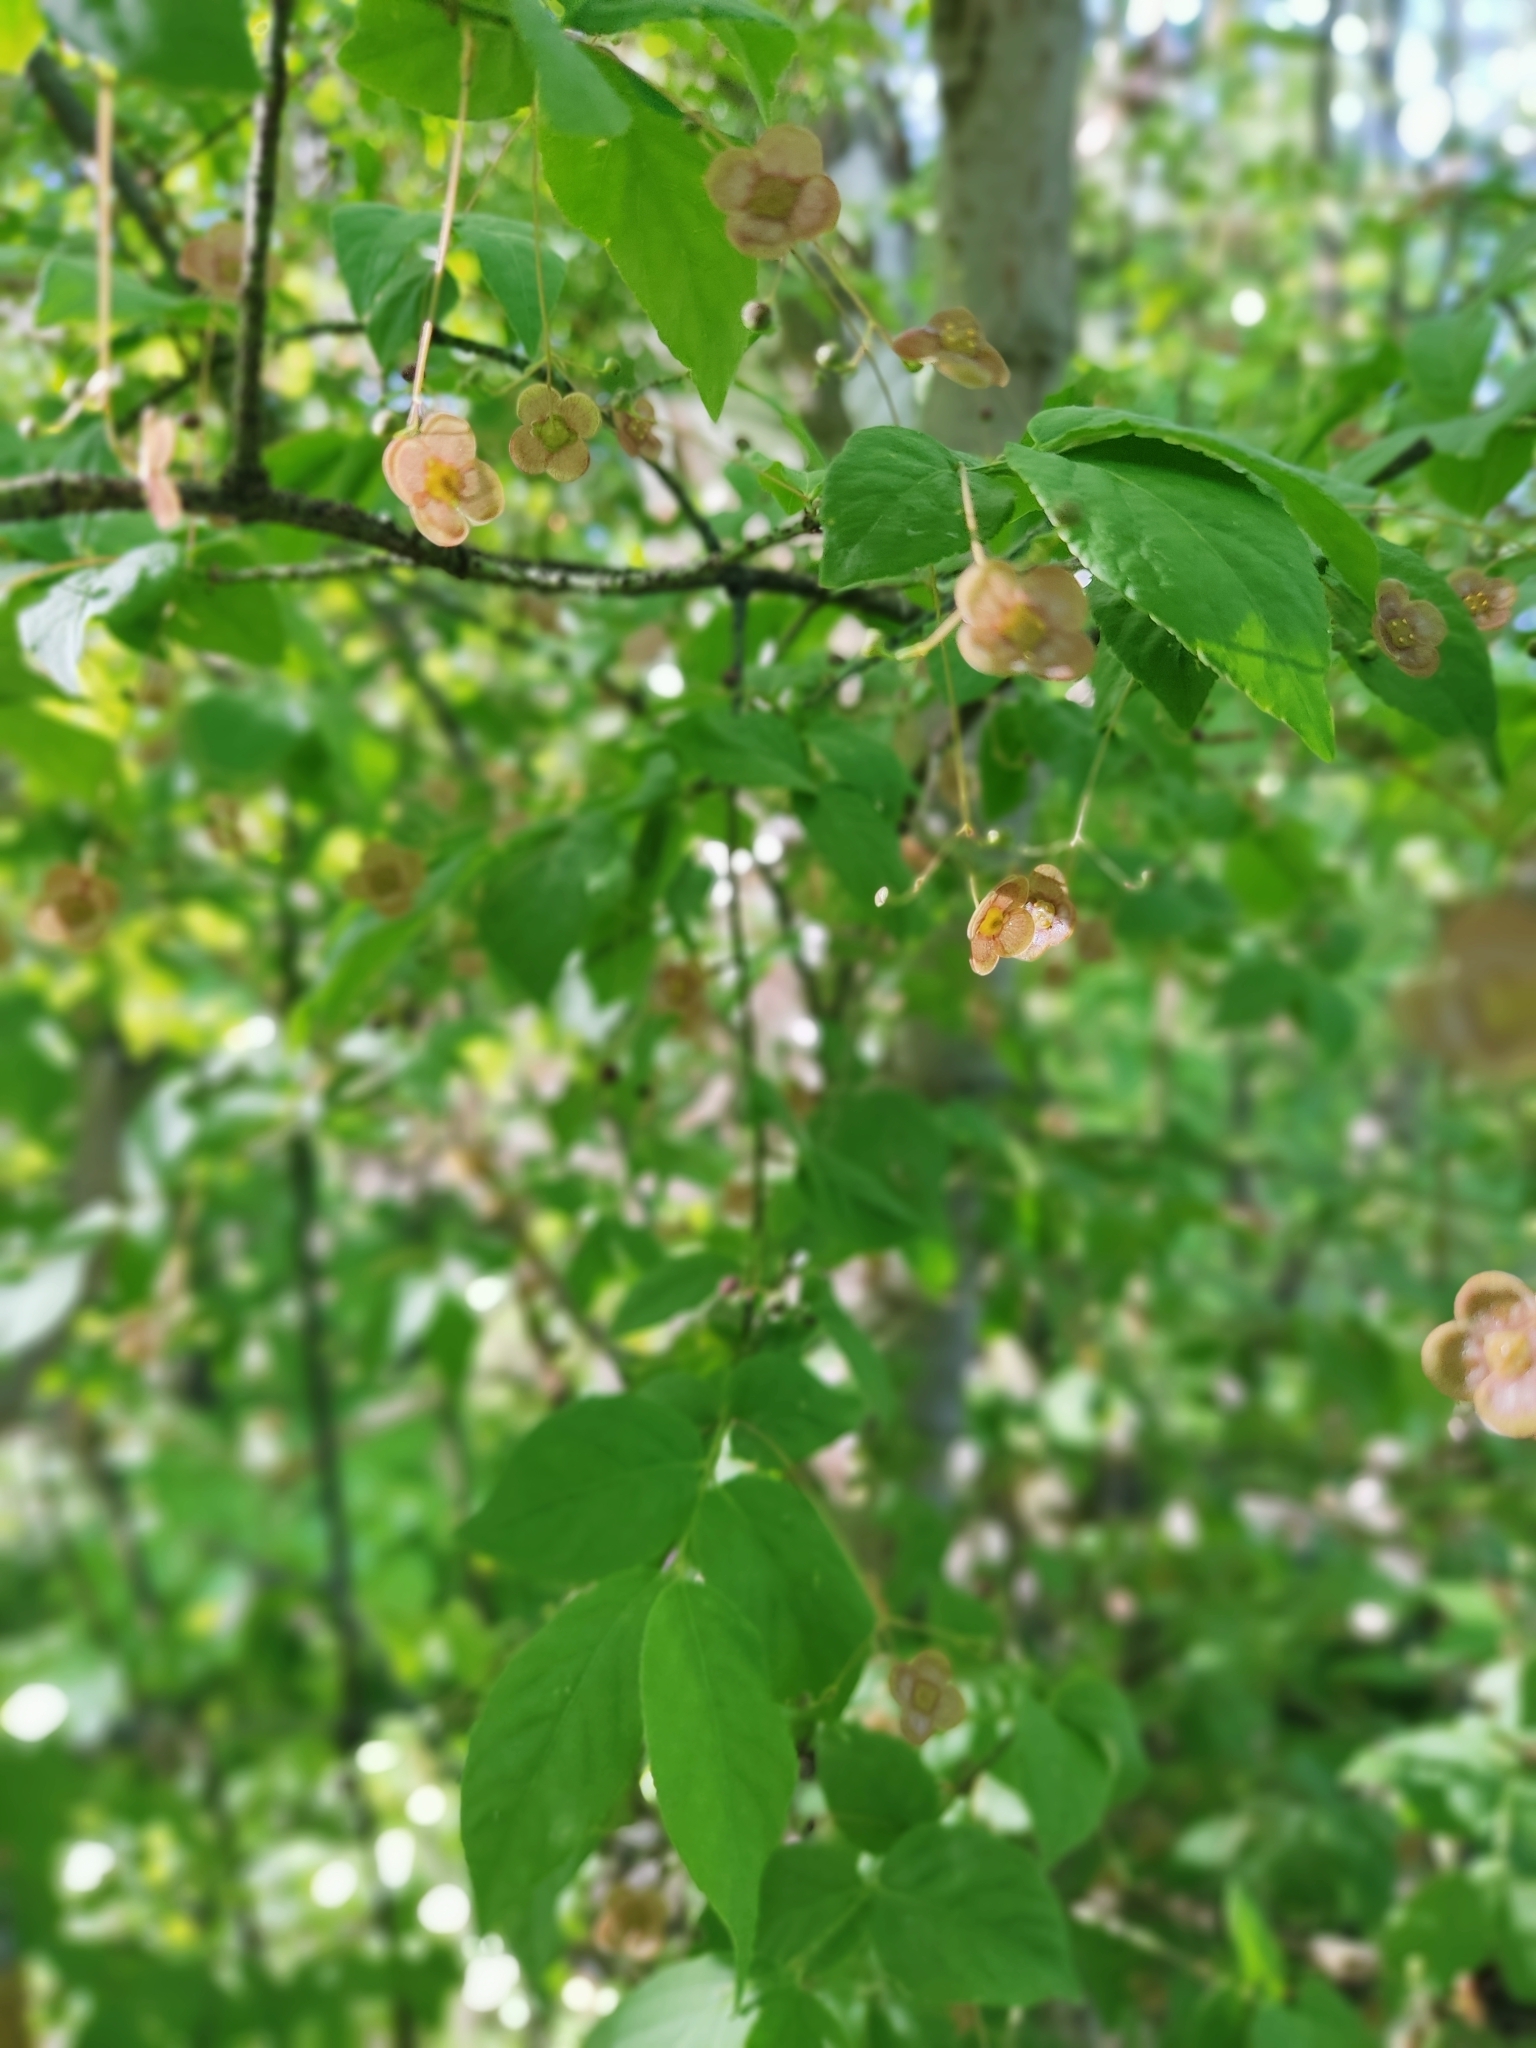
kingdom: Plantae
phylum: Tracheophyta
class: Magnoliopsida
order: Celastrales
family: Celastraceae
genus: Euonymus
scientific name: Euonymus verrucosus
